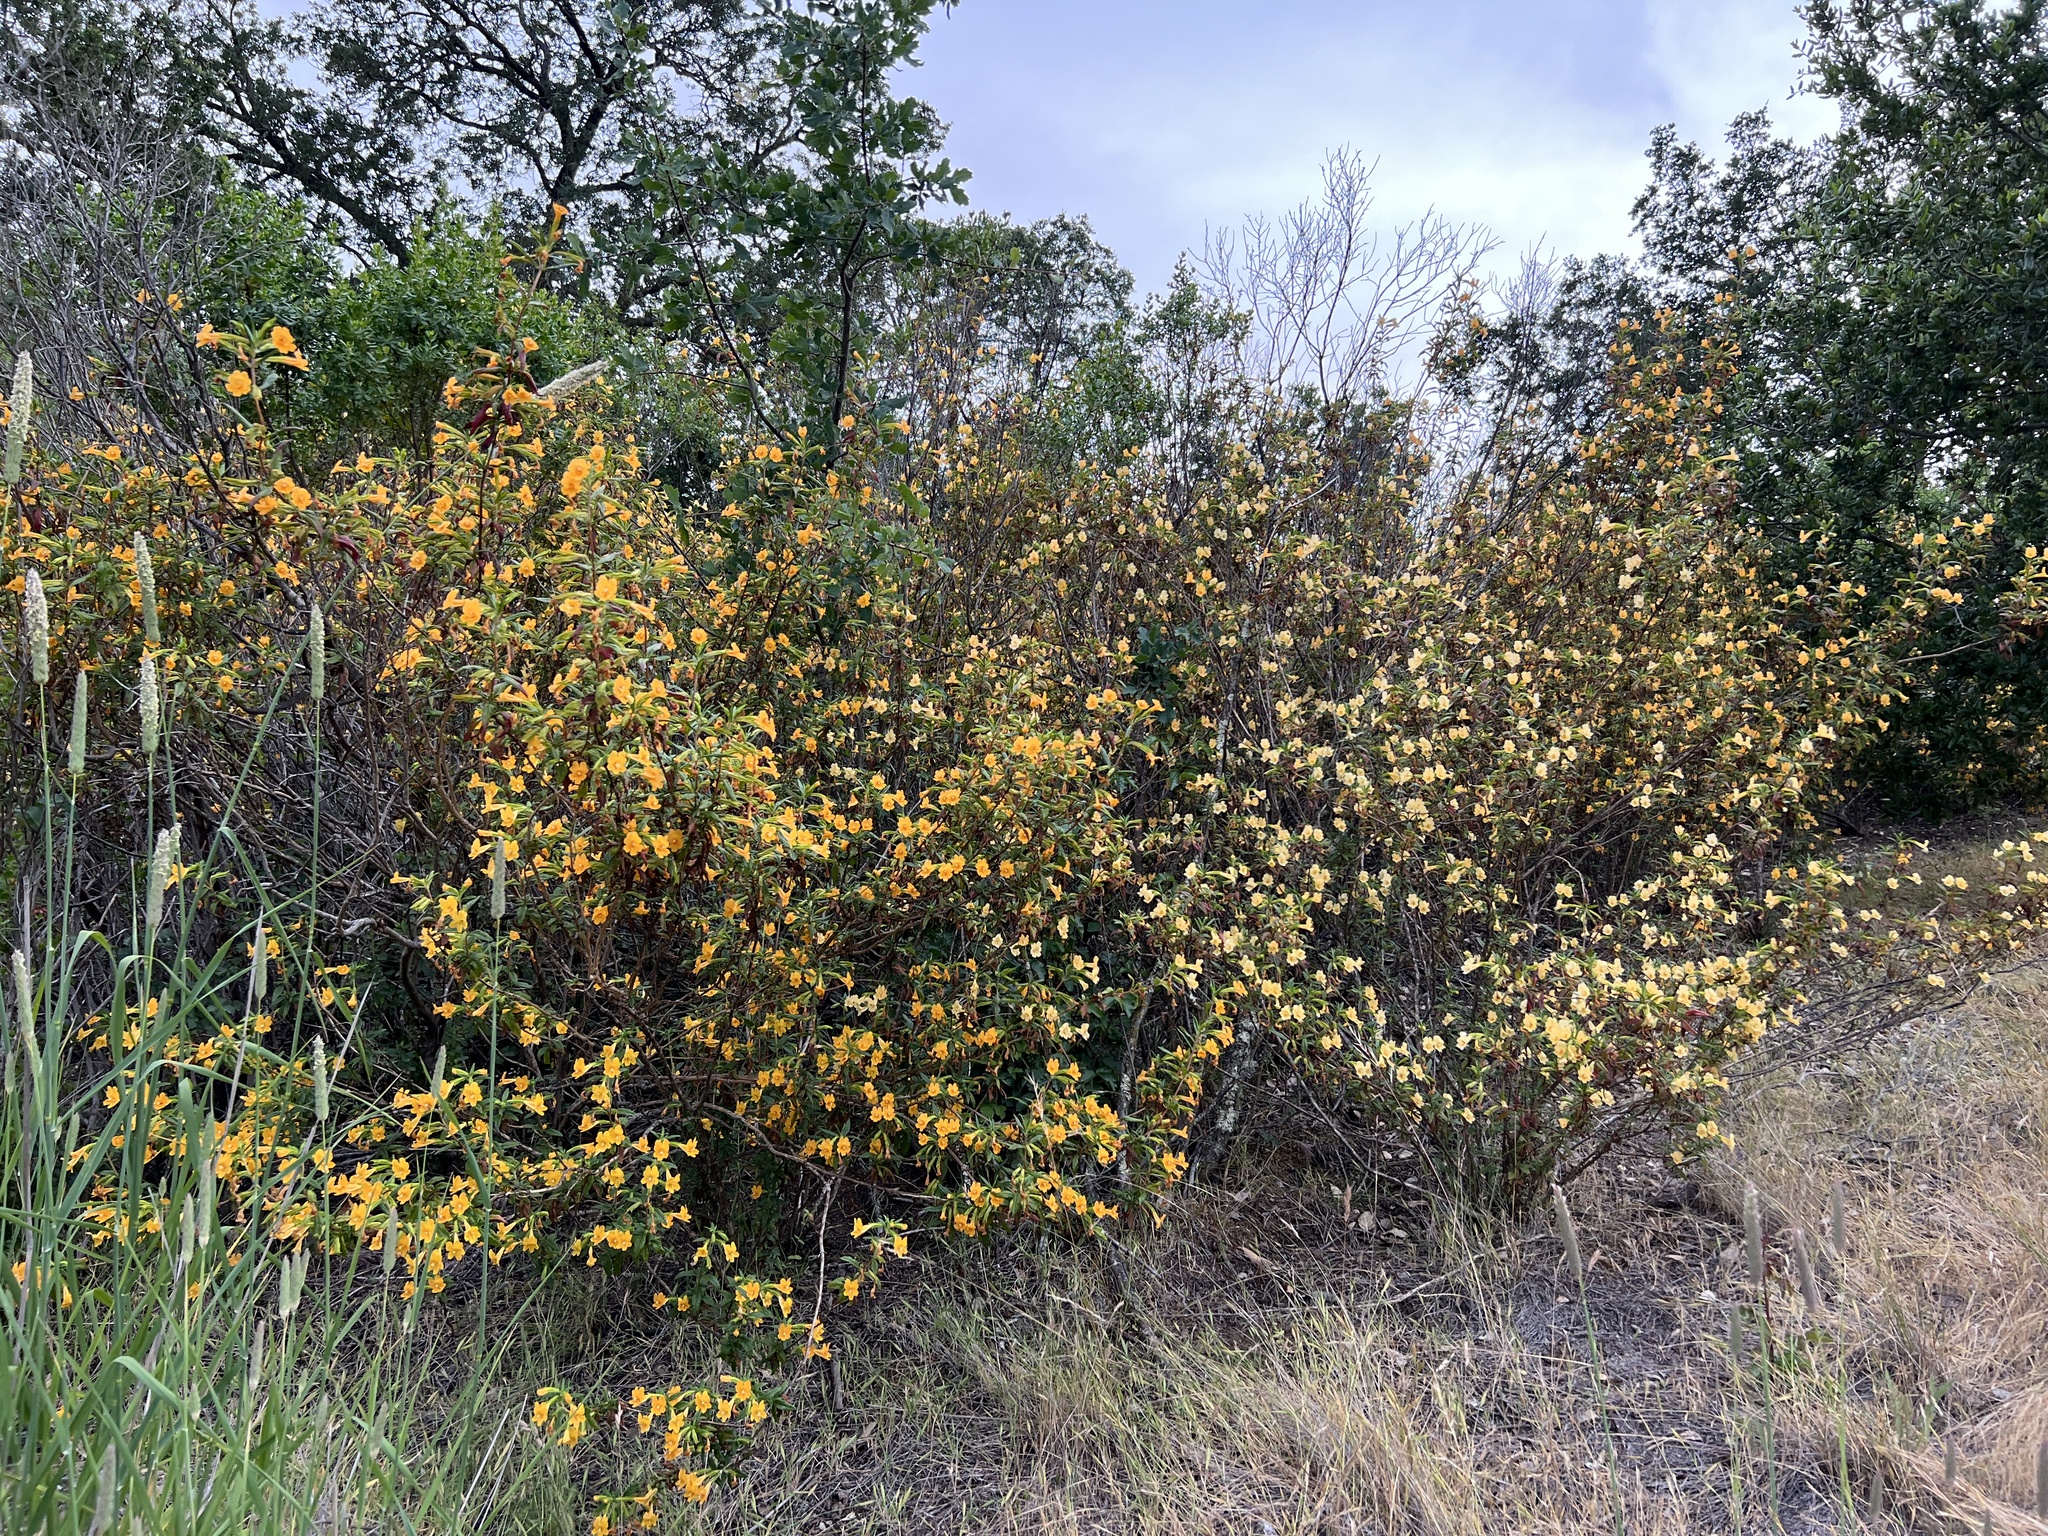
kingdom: Plantae
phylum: Tracheophyta
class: Magnoliopsida
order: Lamiales
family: Phrymaceae
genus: Diplacus
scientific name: Diplacus aurantiacus
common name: Bush monkey-flower
